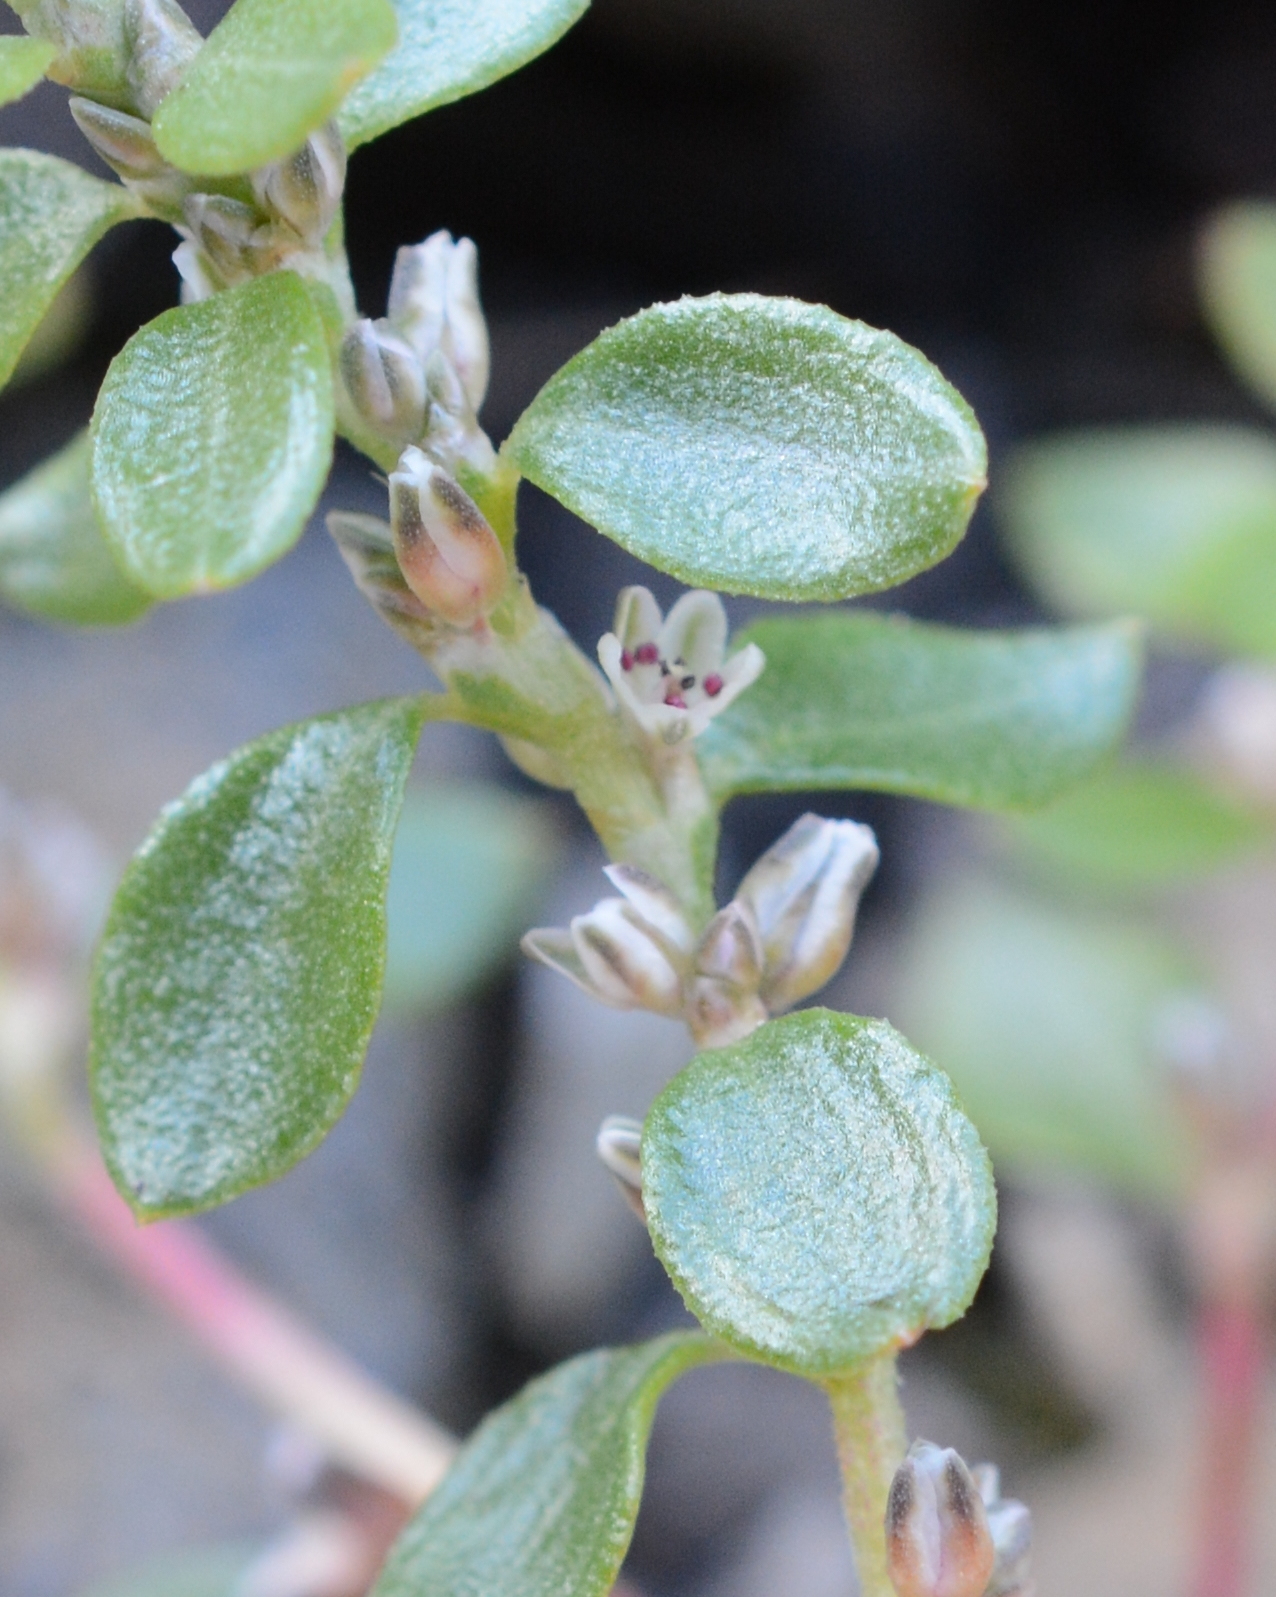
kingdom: Plantae
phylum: Tracheophyta
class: Magnoliopsida
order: Caryophyllales
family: Polygonaceae
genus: Polygonum
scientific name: Polygonum minimum
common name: Broad-leaved knotweed
